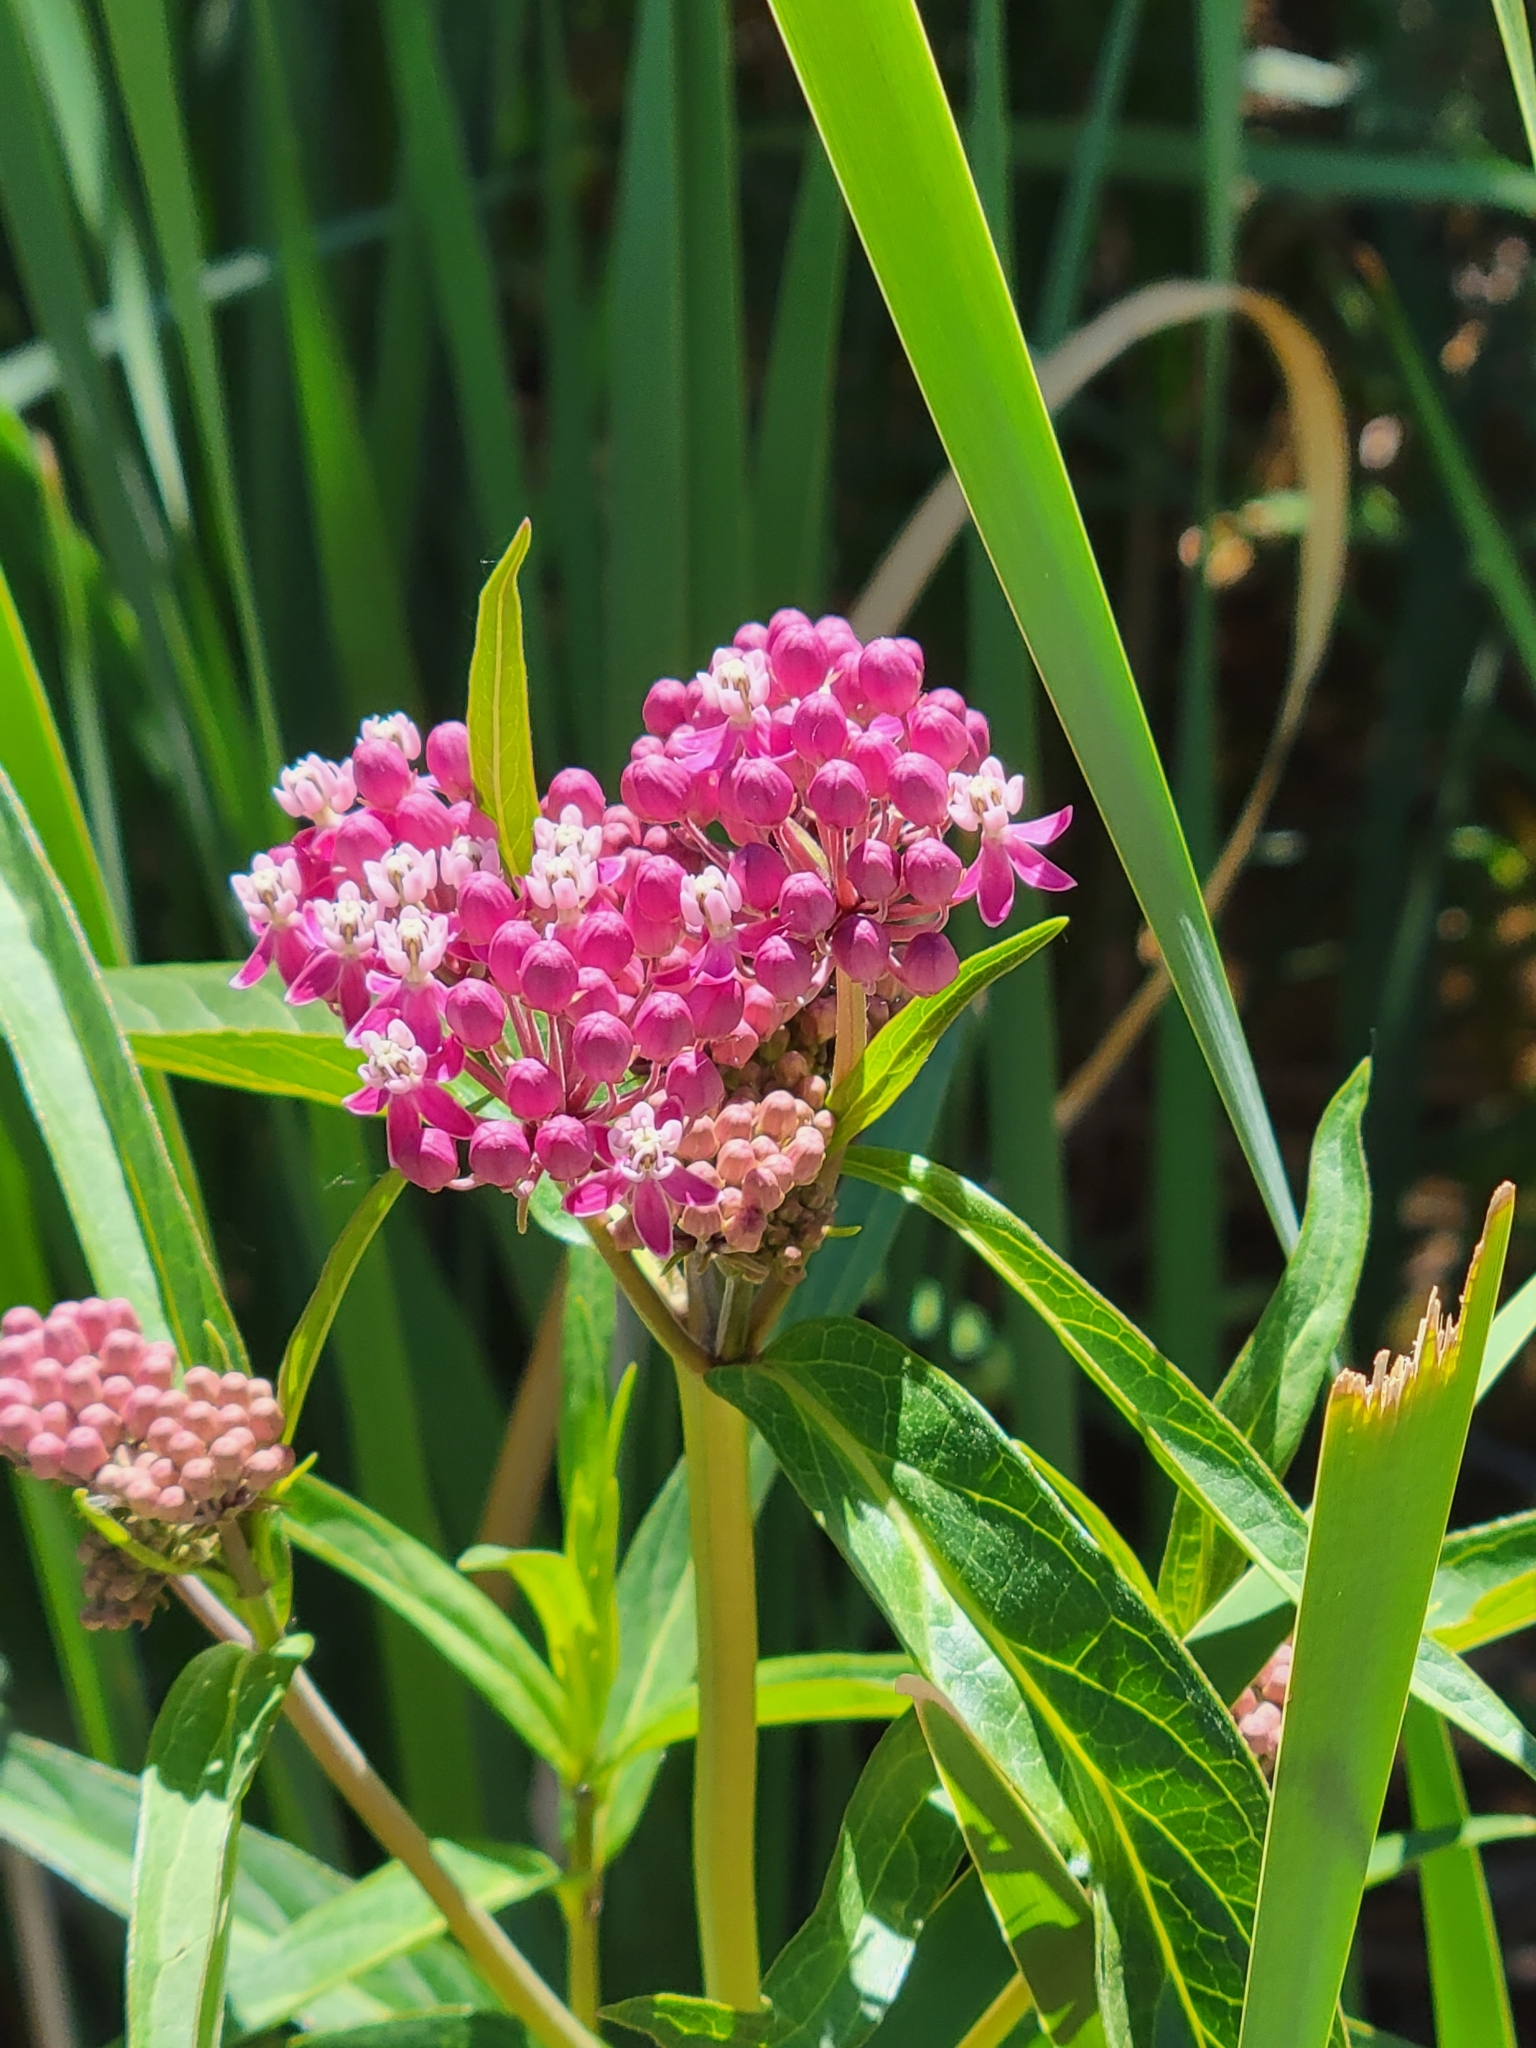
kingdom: Plantae
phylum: Tracheophyta
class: Magnoliopsida
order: Gentianales
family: Apocynaceae
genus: Asclepias
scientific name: Asclepias incarnata
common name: Swamp milkweed
